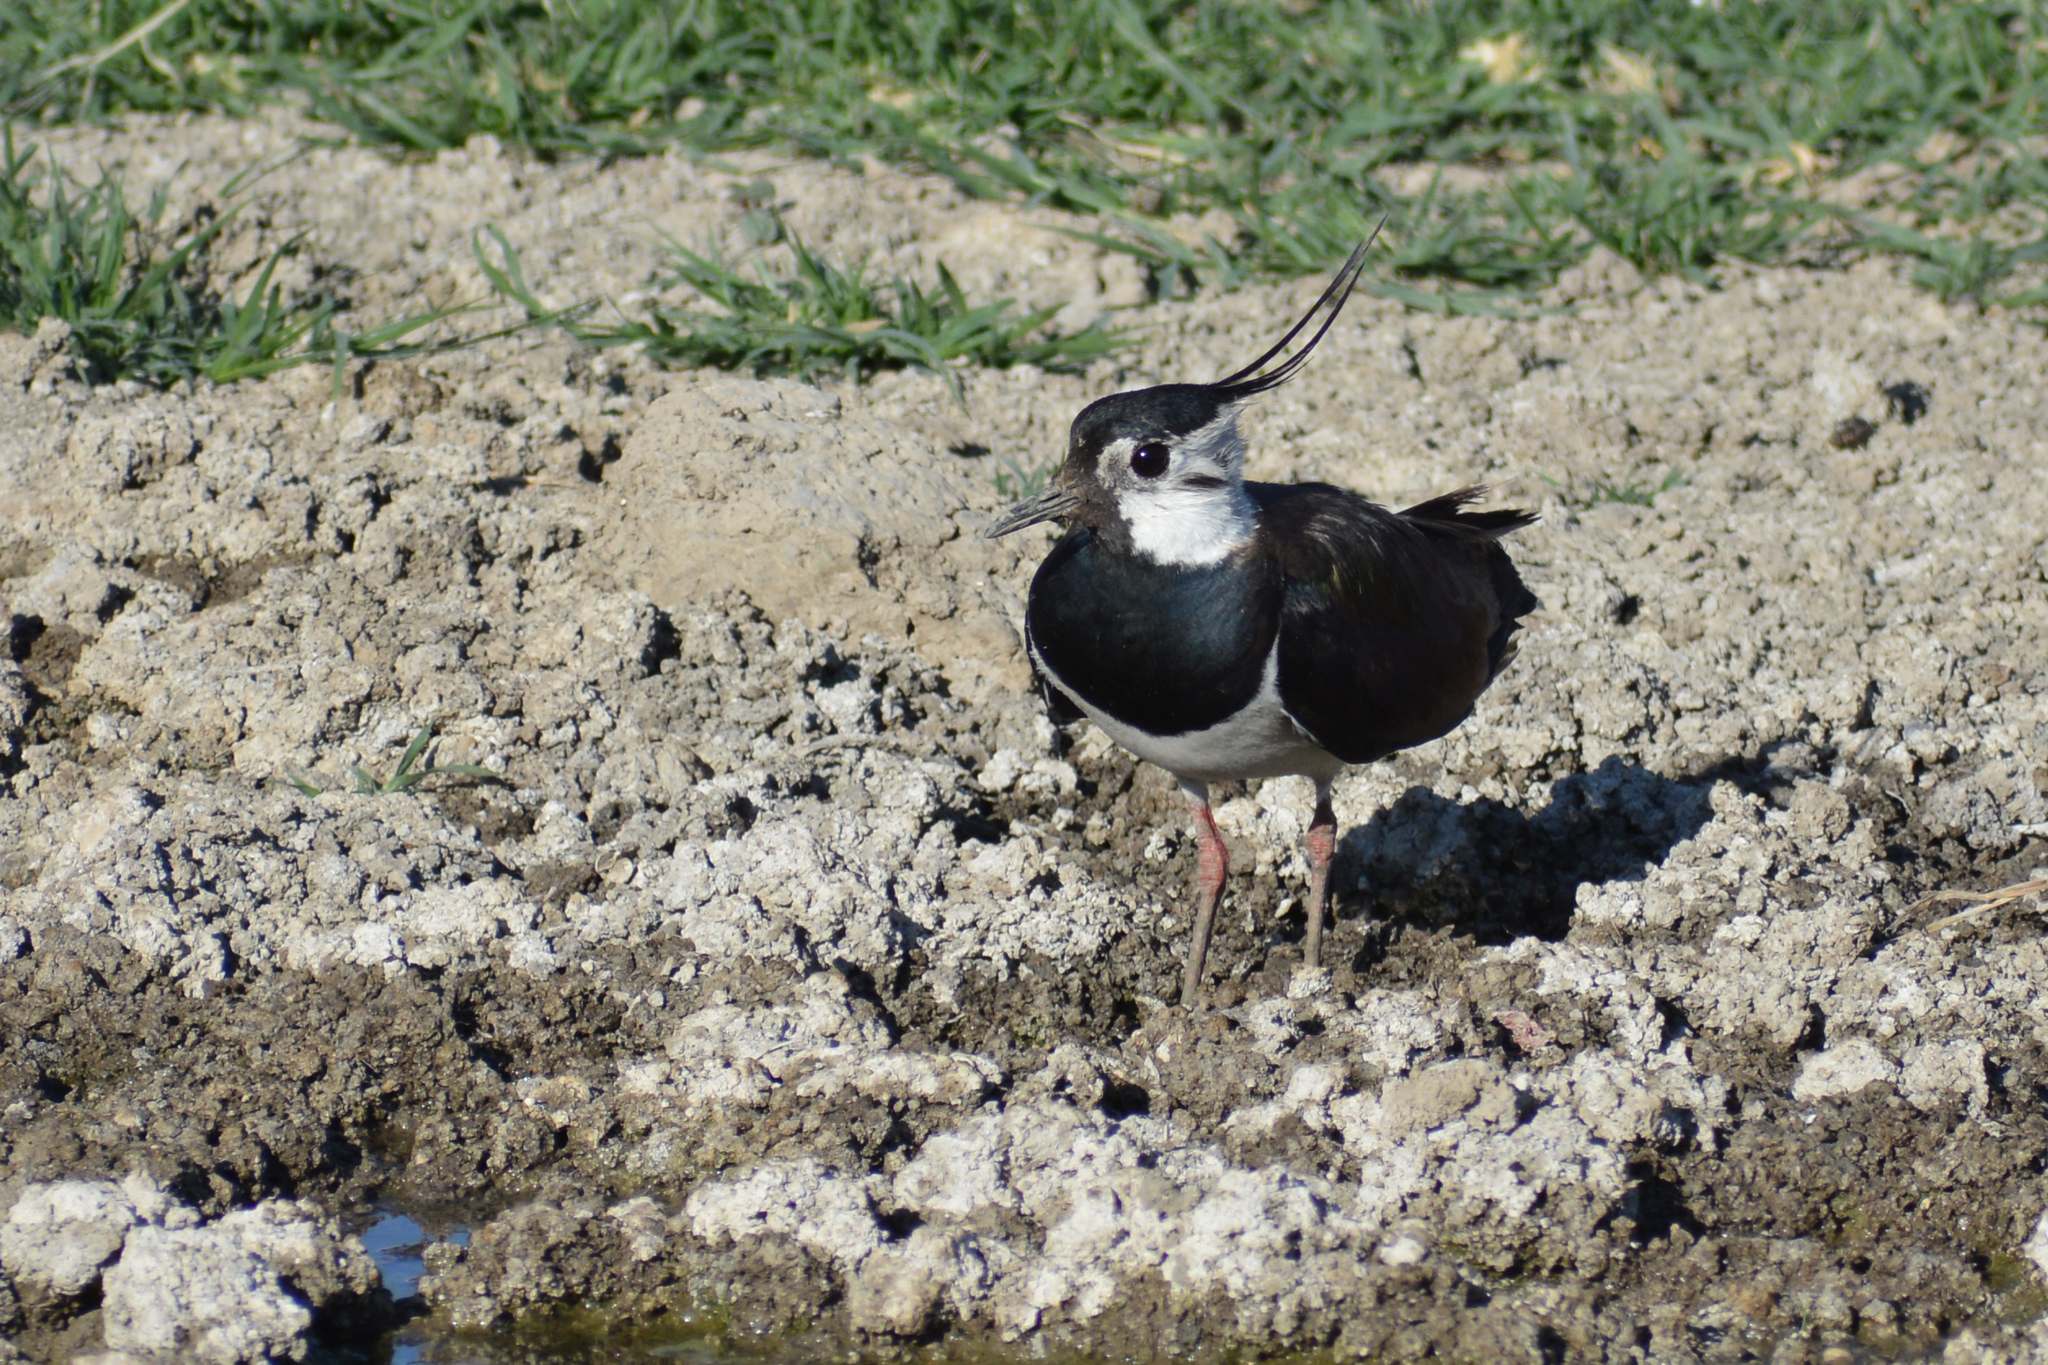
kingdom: Animalia
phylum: Chordata
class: Aves
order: Charadriiformes
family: Charadriidae
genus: Vanellus
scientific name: Vanellus vanellus
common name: Northern lapwing
